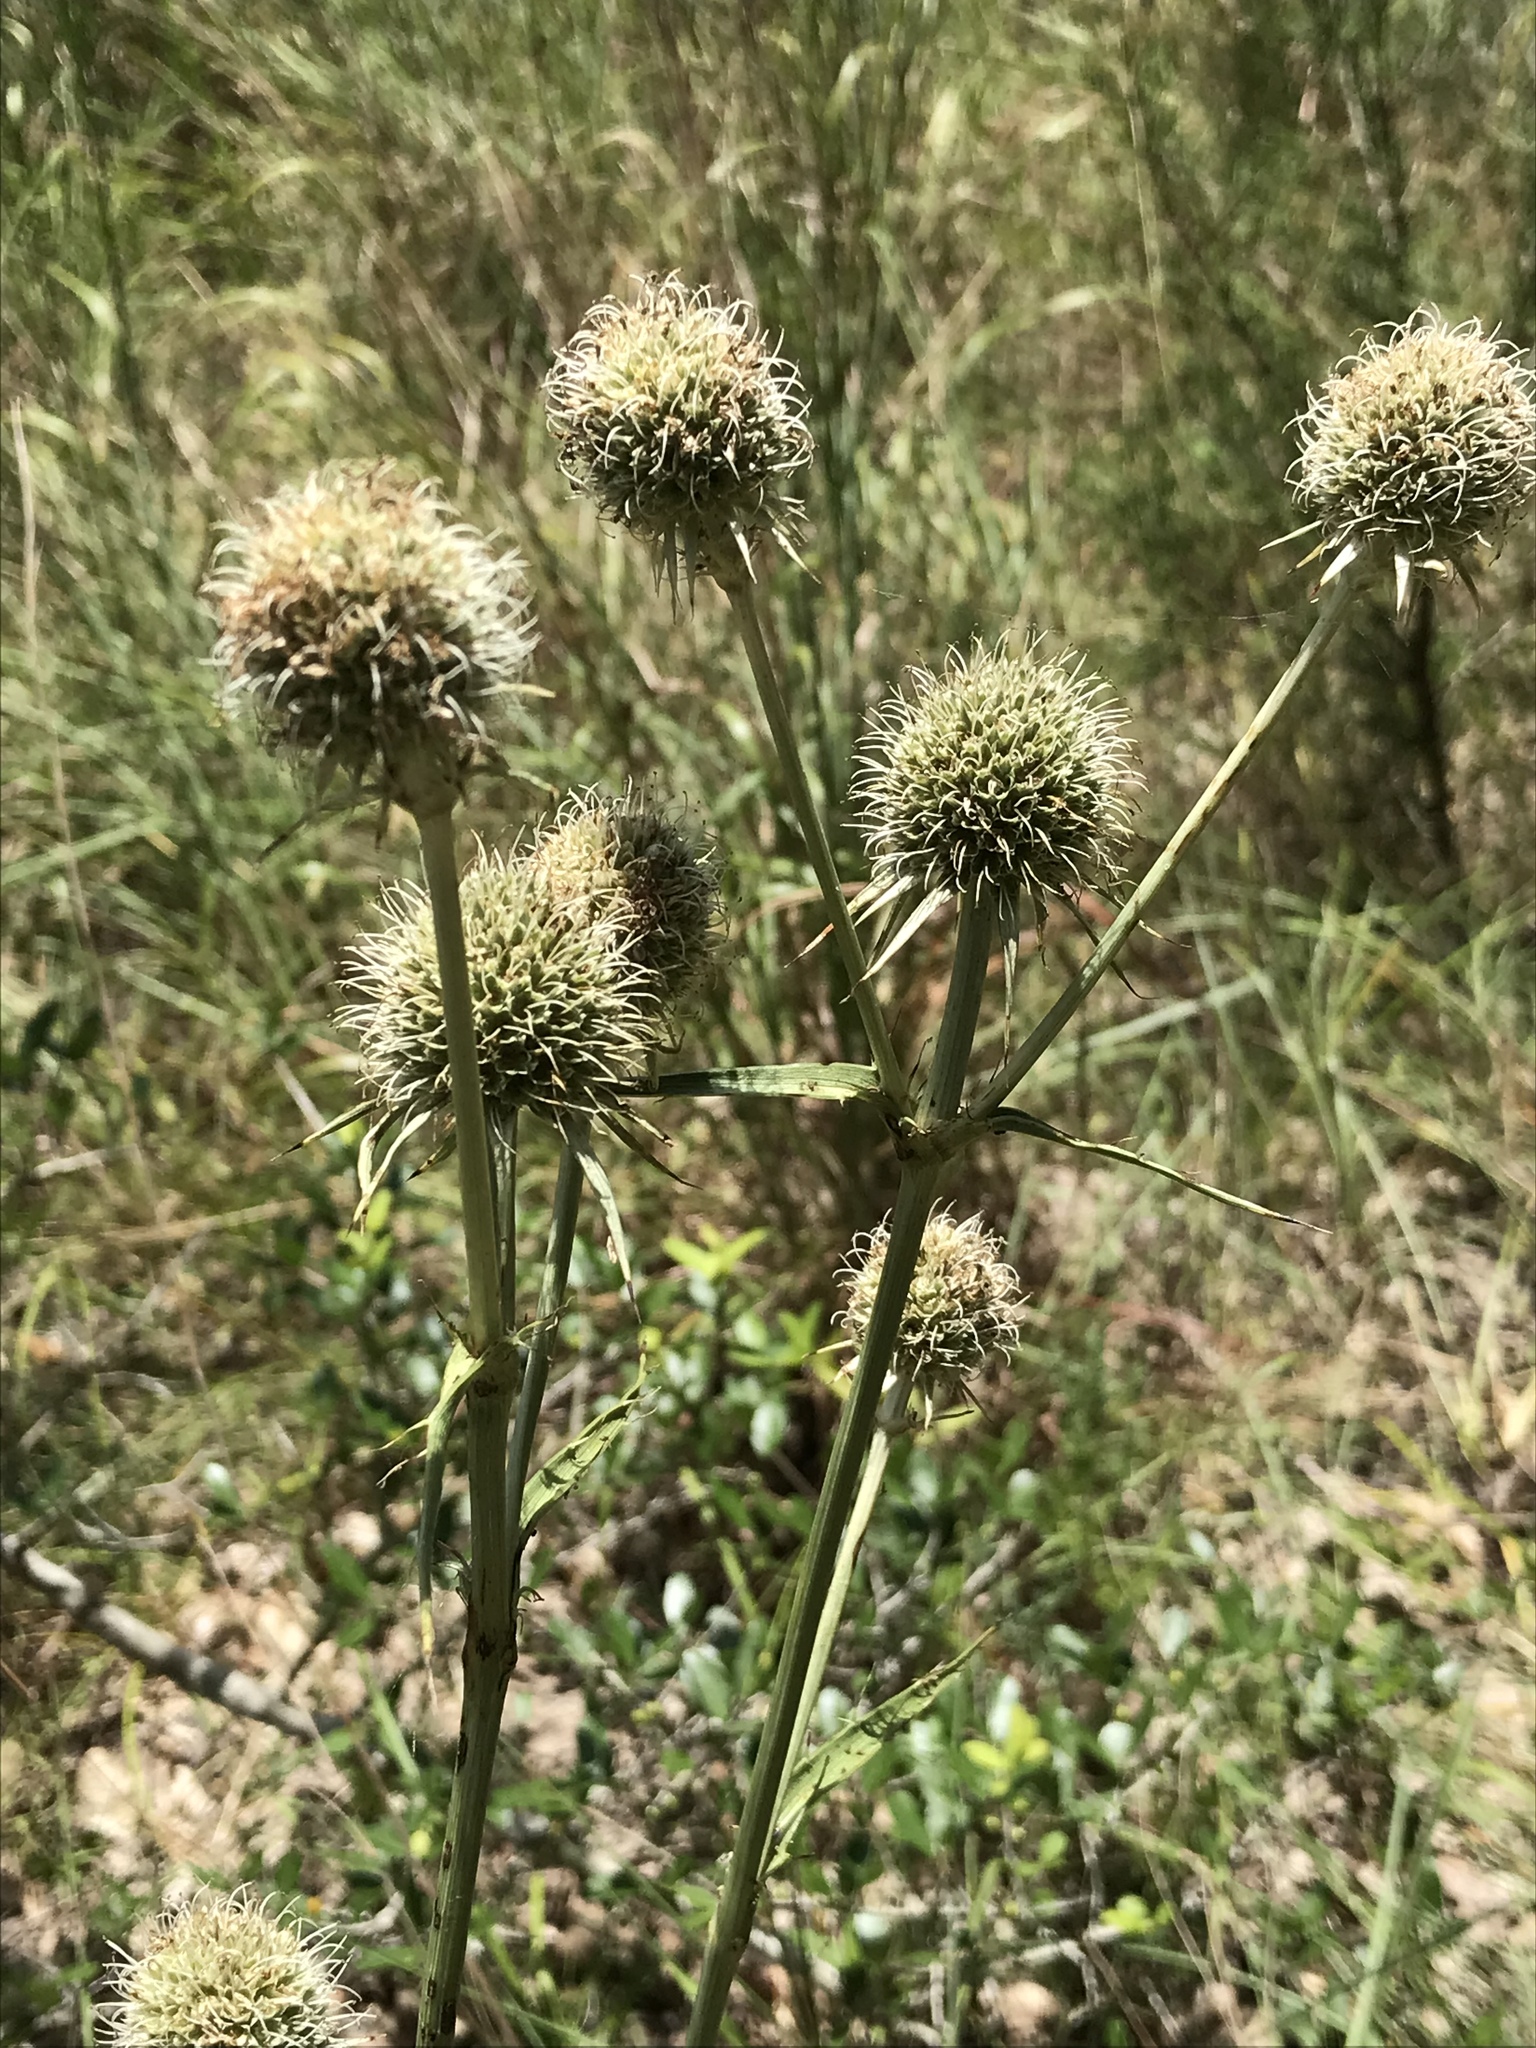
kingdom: Plantae
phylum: Tracheophyta
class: Magnoliopsida
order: Apiales
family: Apiaceae
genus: Eryngium
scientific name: Eryngium yuccifolium
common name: Button eryngo
